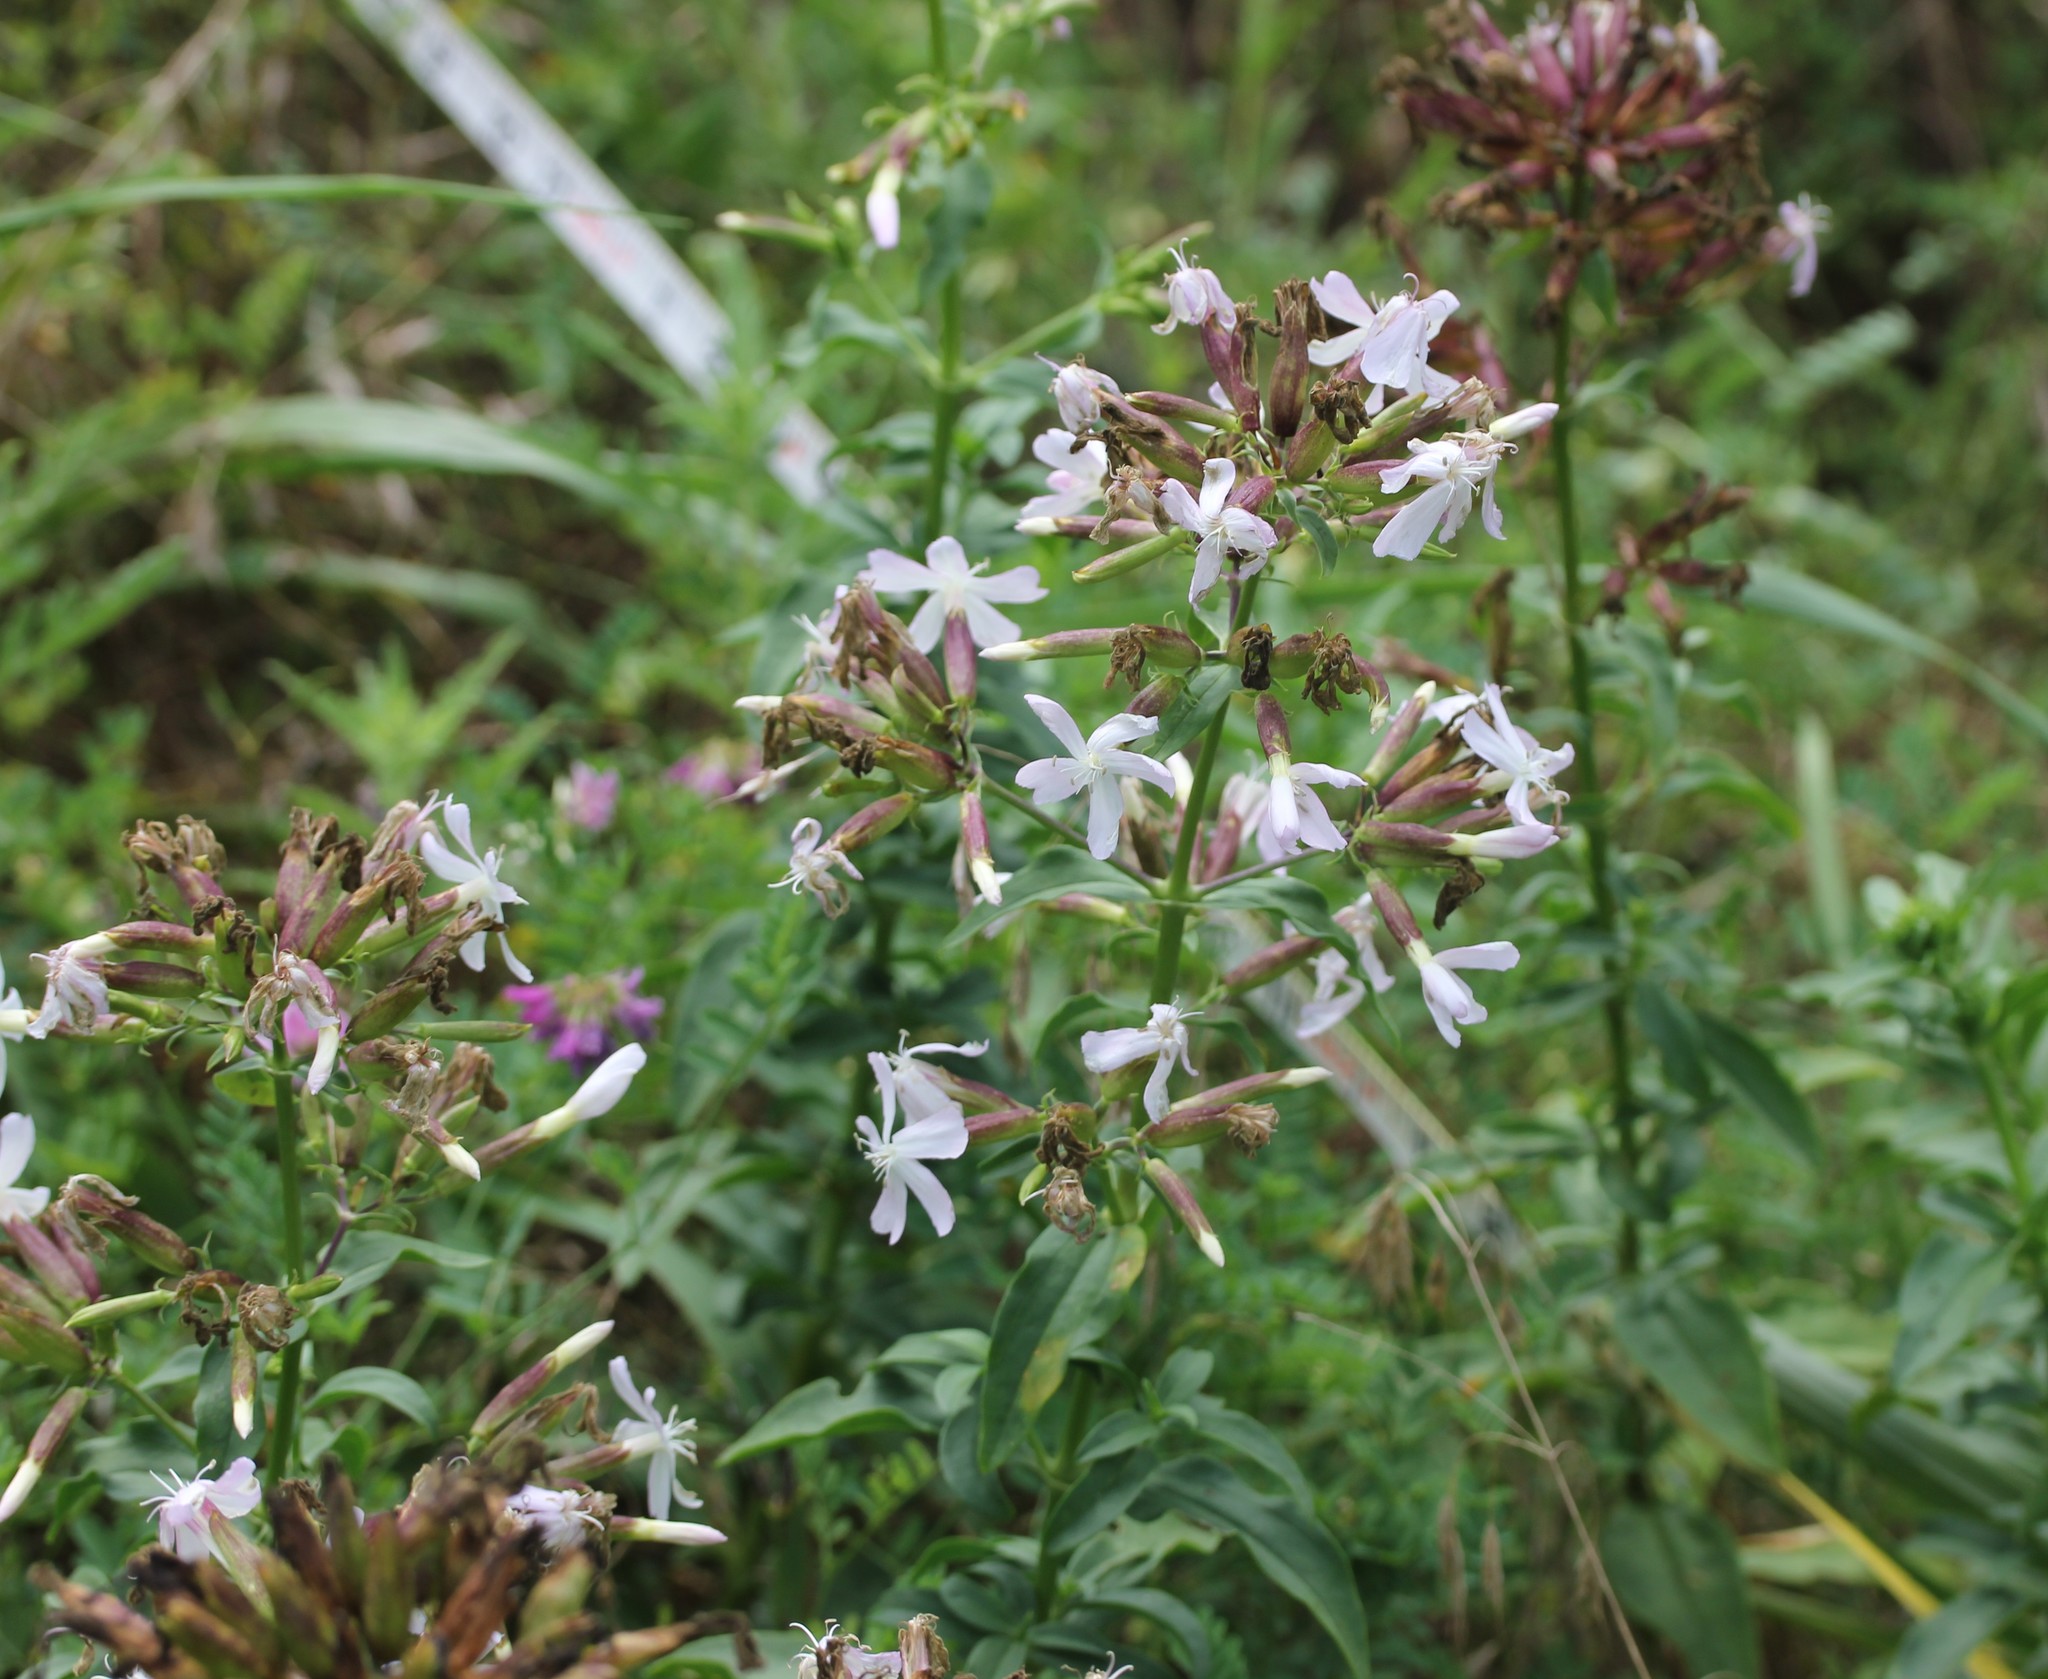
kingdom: Plantae
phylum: Tracheophyta
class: Magnoliopsida
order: Caryophyllales
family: Caryophyllaceae
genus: Saponaria
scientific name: Saponaria officinalis
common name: Soapwort
